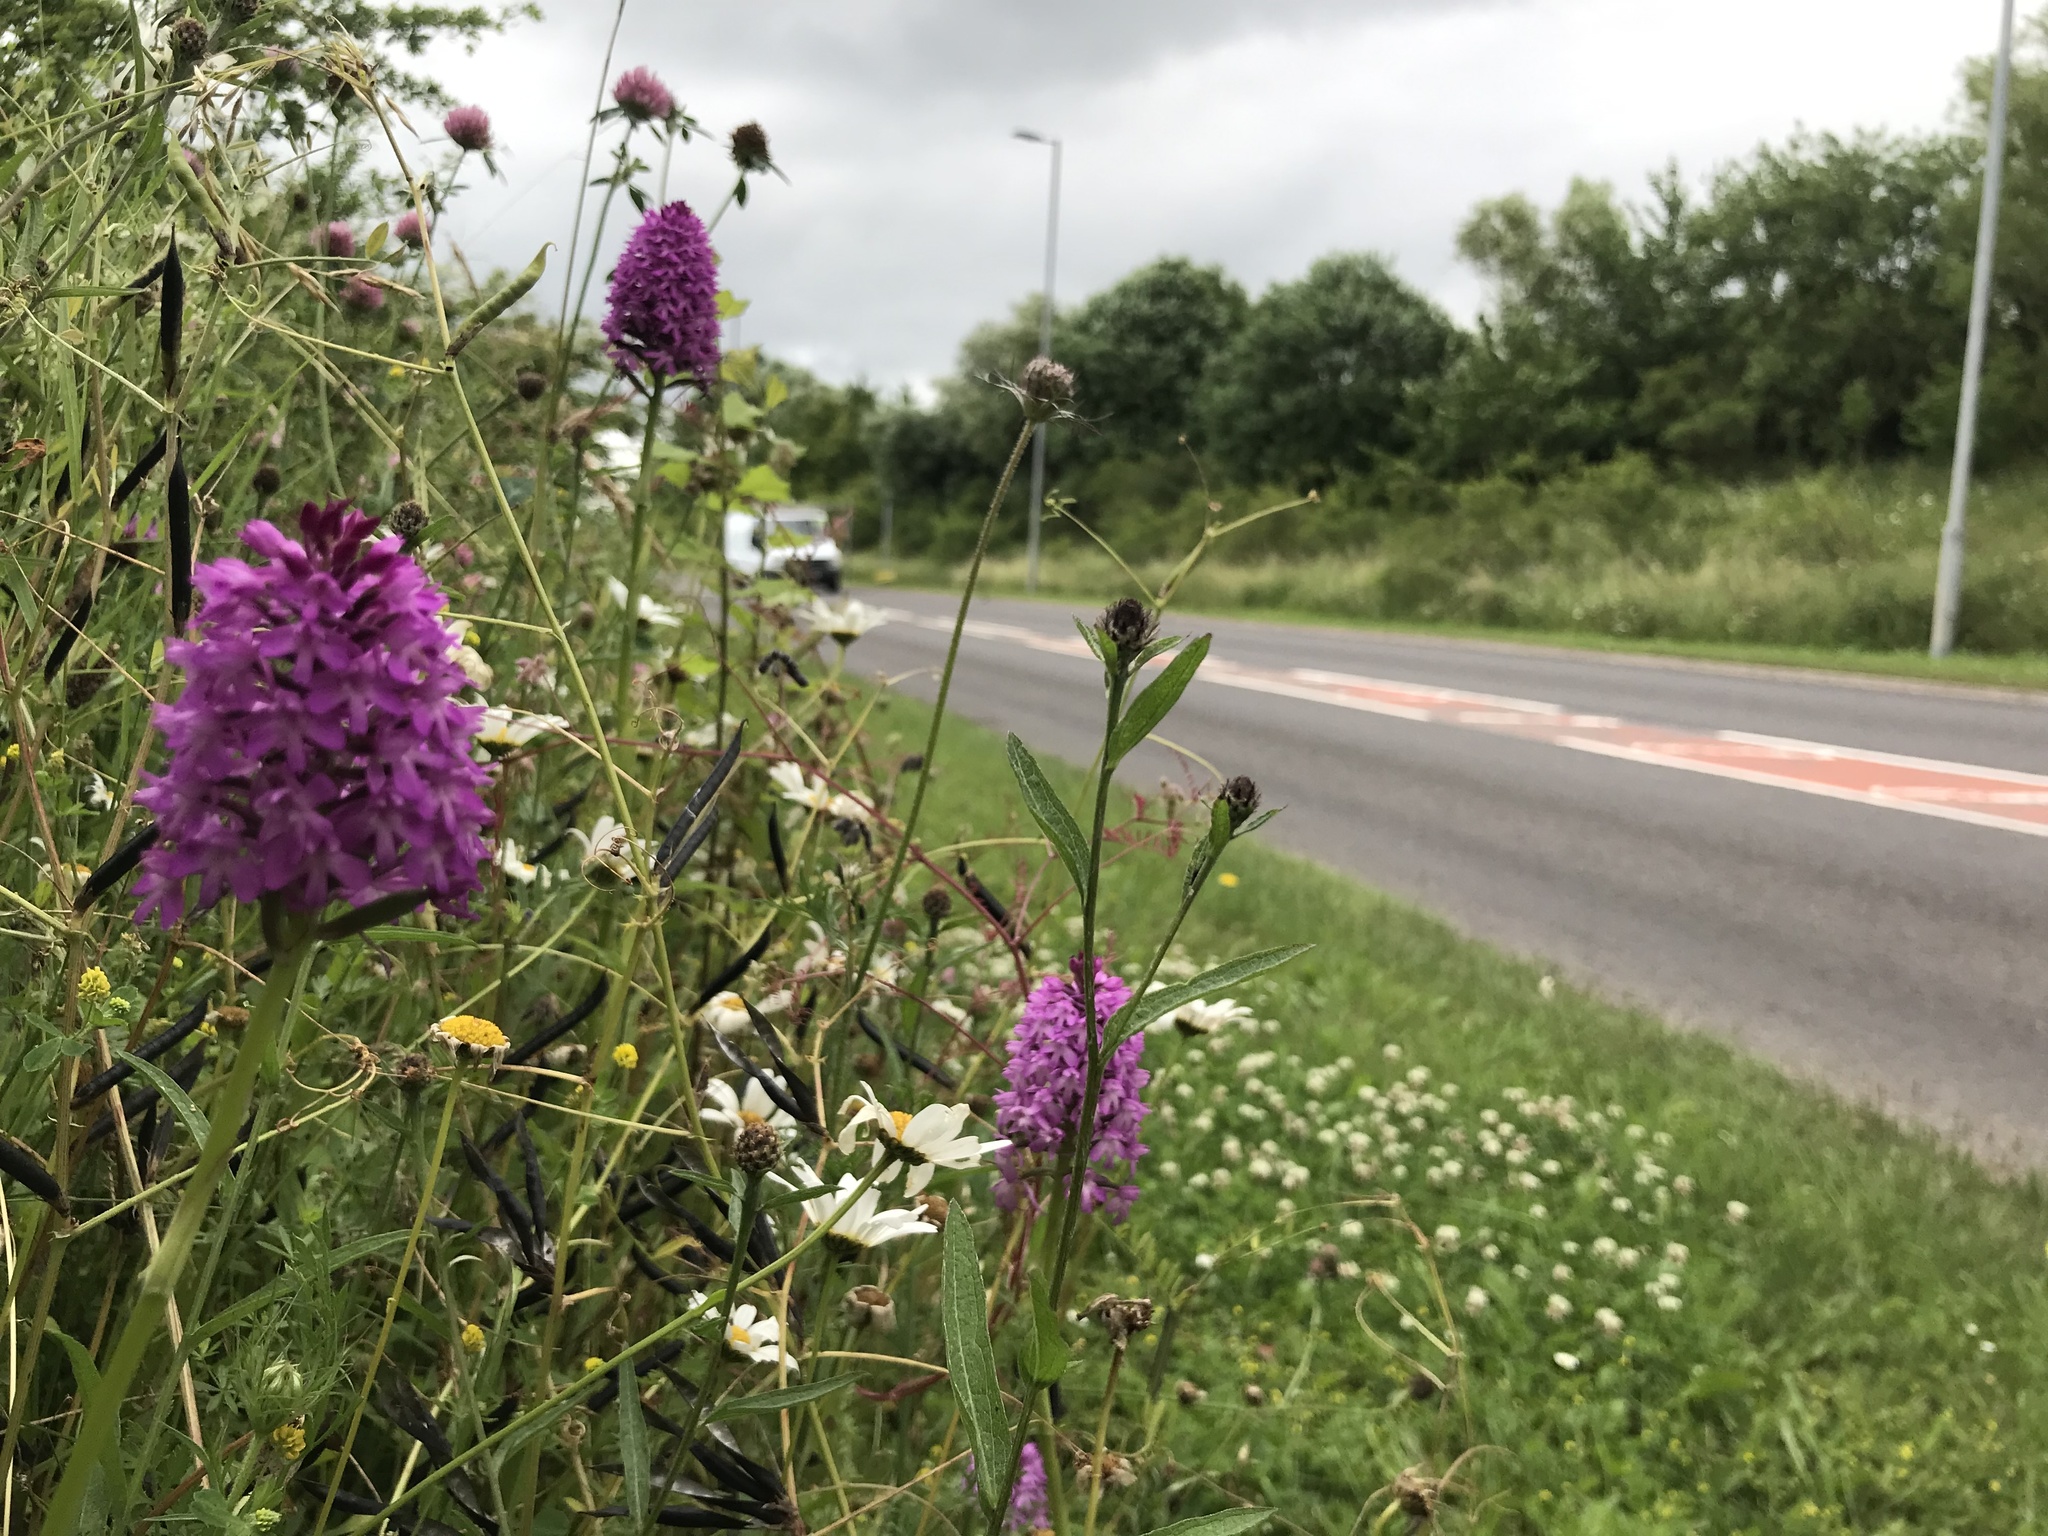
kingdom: Plantae
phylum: Tracheophyta
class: Liliopsida
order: Asparagales
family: Orchidaceae
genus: Anacamptis
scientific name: Anacamptis pyramidalis
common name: Pyramidal orchid
